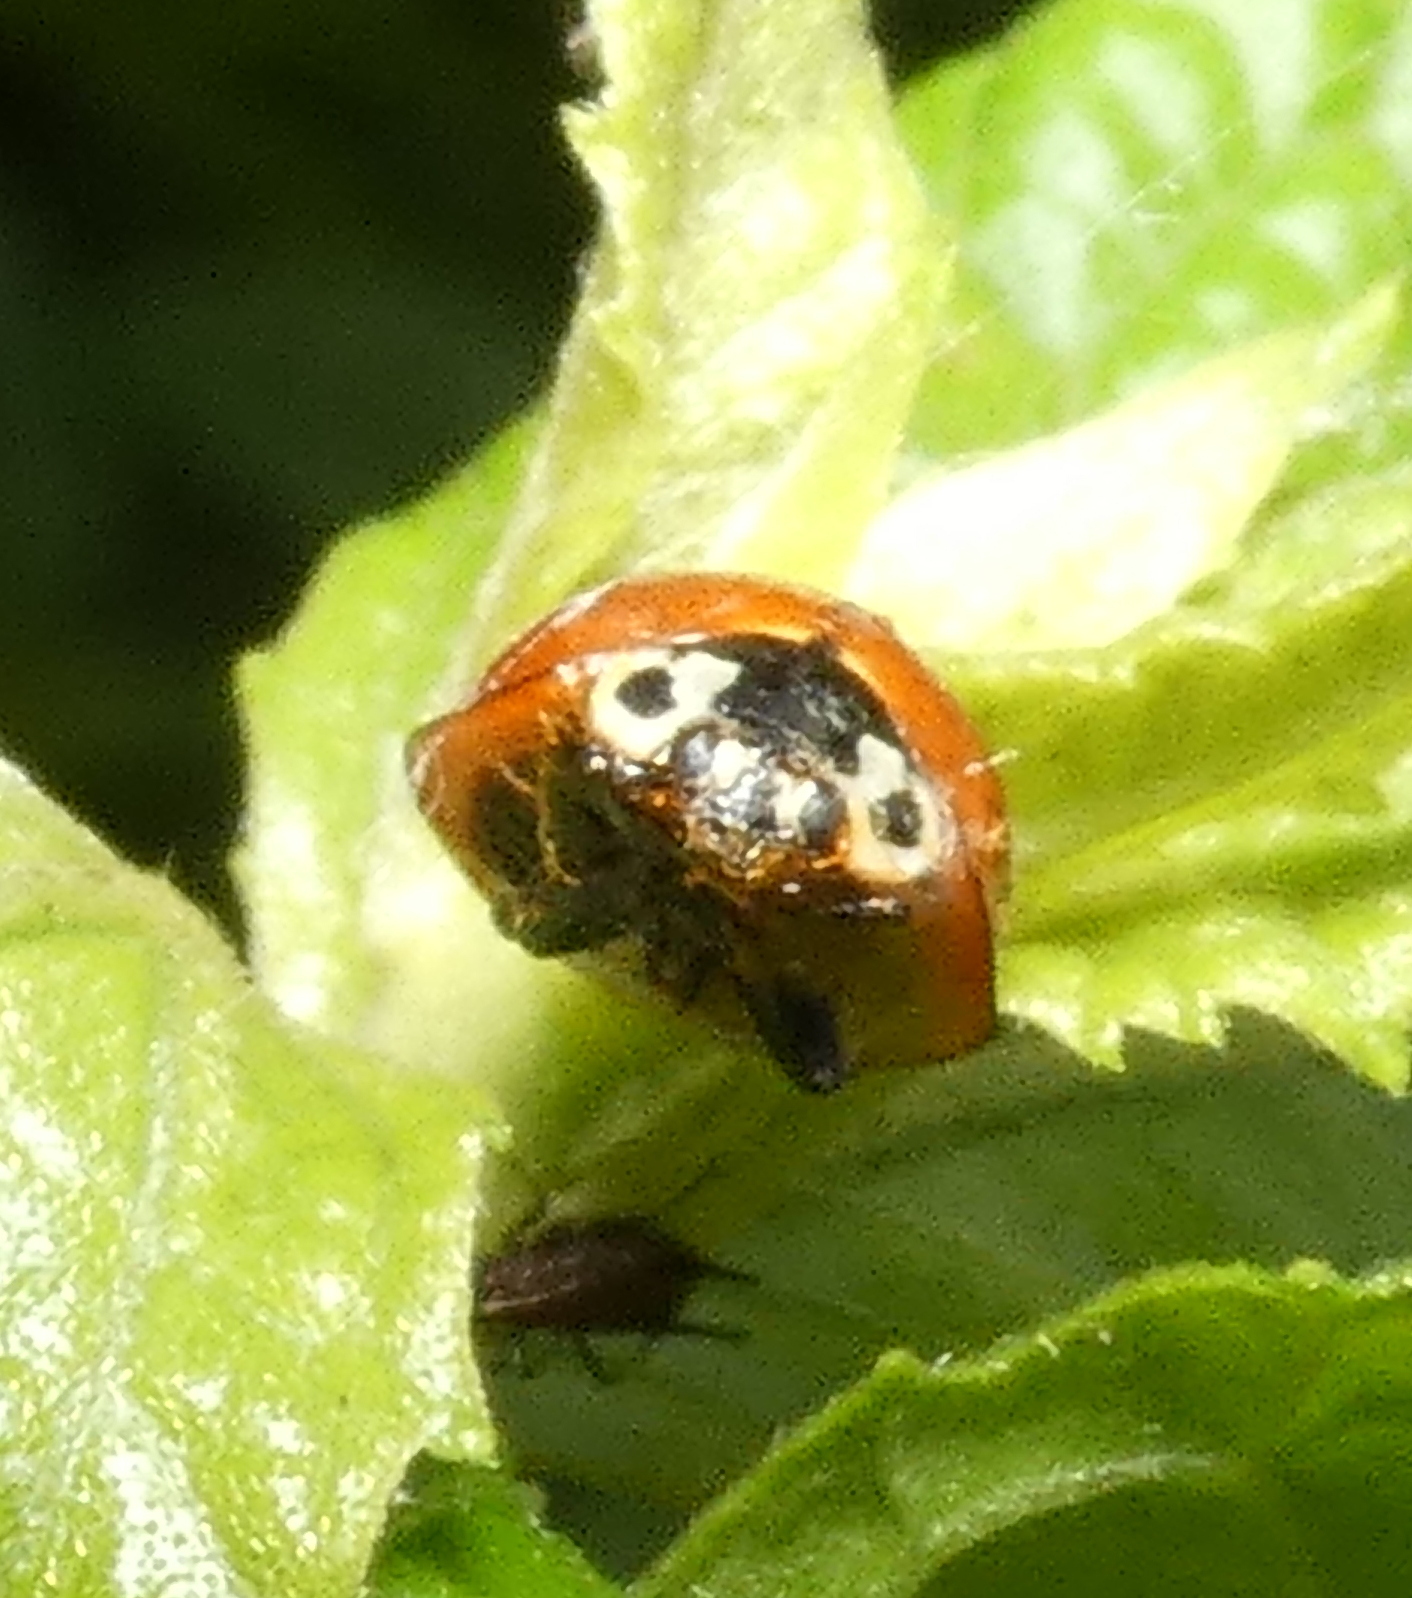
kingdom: Animalia
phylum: Arthropoda
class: Insecta
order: Coleoptera
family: Coccinellidae
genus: Cycloneda
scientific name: Cycloneda sanguinea
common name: Ladybird beetle
